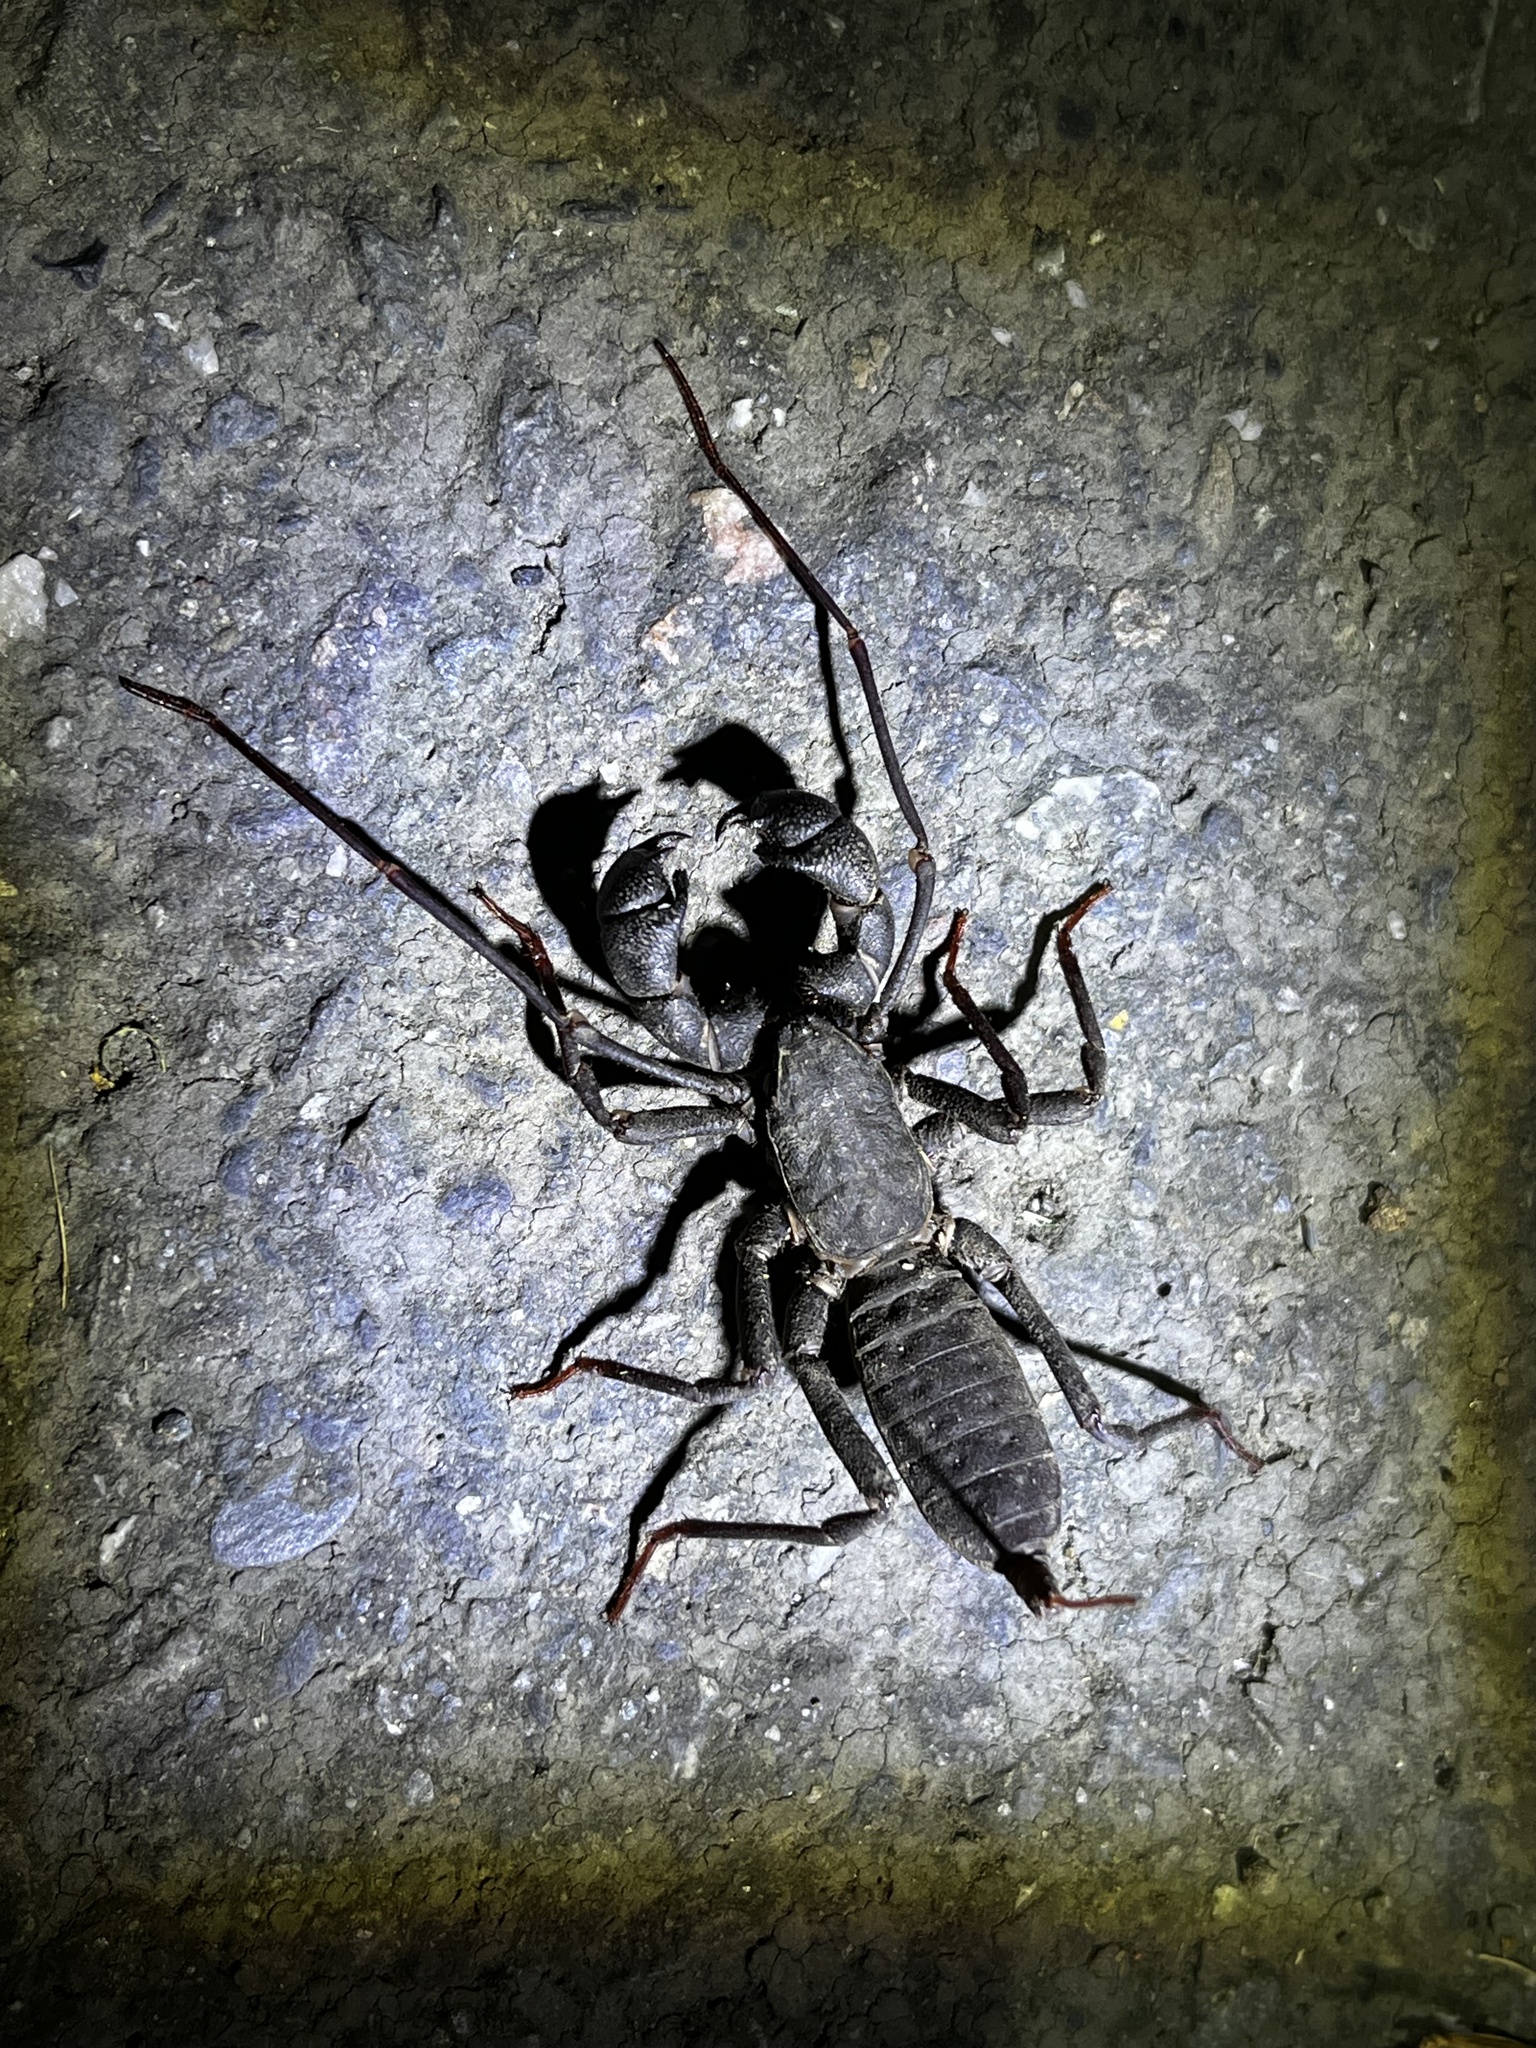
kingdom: Animalia
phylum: Arthropoda
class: Arachnida
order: Uropygi
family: Thelyphonidae
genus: Typopeltis
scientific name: Typopeltis crucifer
